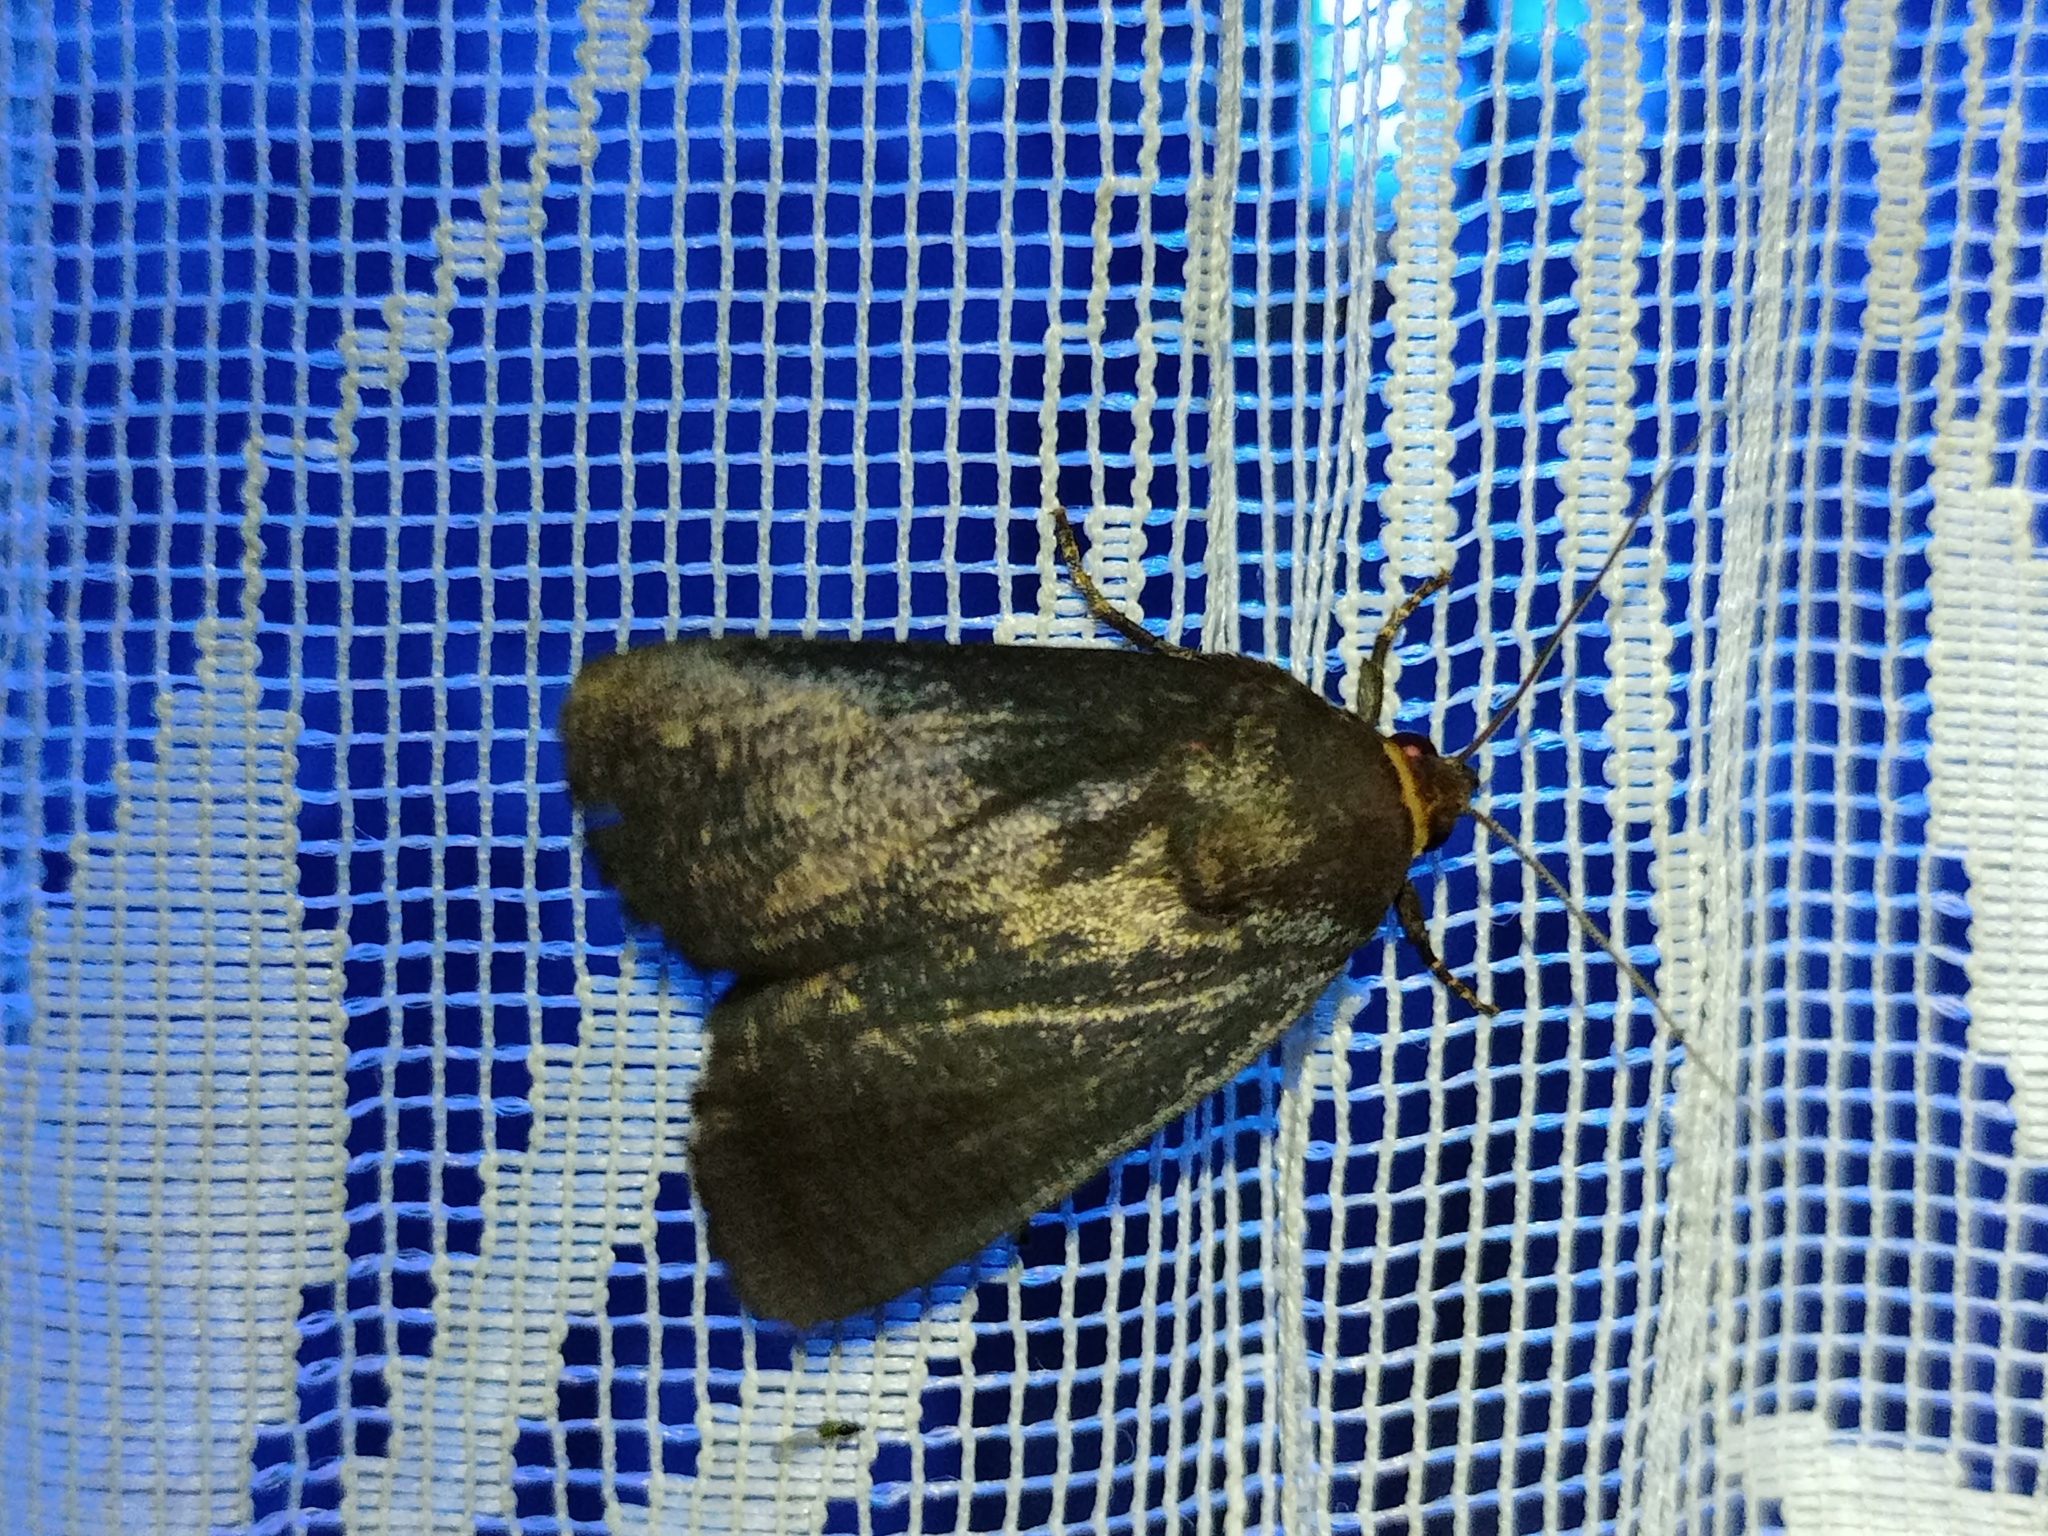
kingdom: Animalia
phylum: Arthropoda
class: Insecta
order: Lepidoptera
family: Noctuidae
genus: Amphipyra
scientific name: Amphipyra livida
